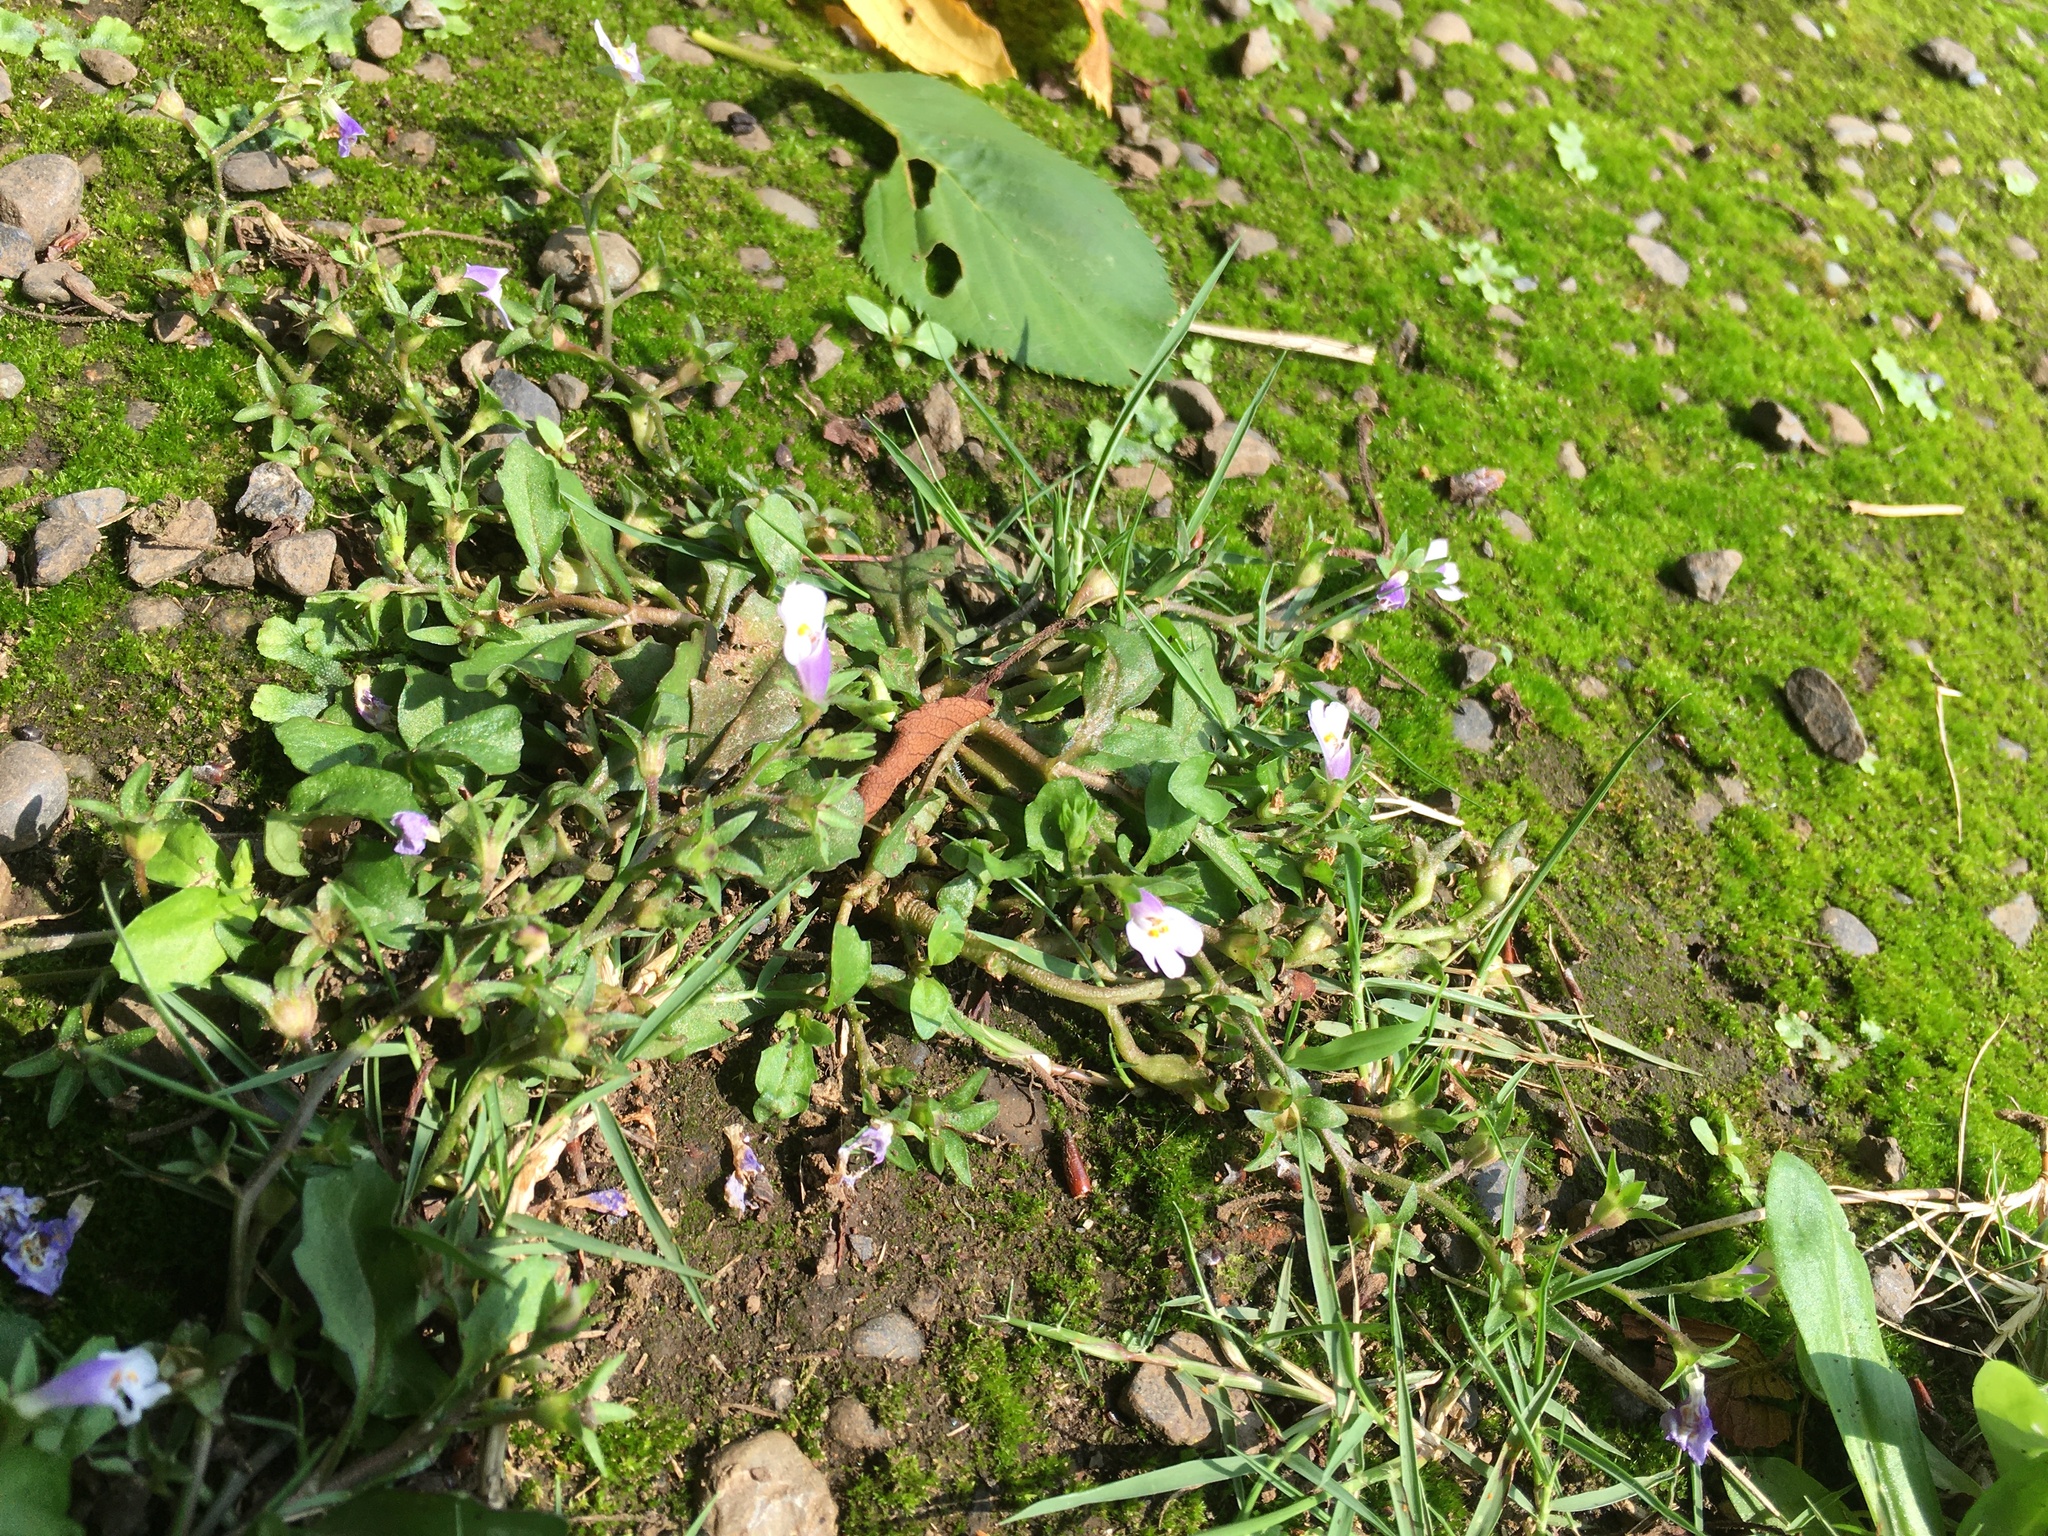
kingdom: Plantae
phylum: Tracheophyta
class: Magnoliopsida
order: Lamiales
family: Mazaceae
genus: Mazus
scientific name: Mazus pumilus
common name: Japanese mazus
